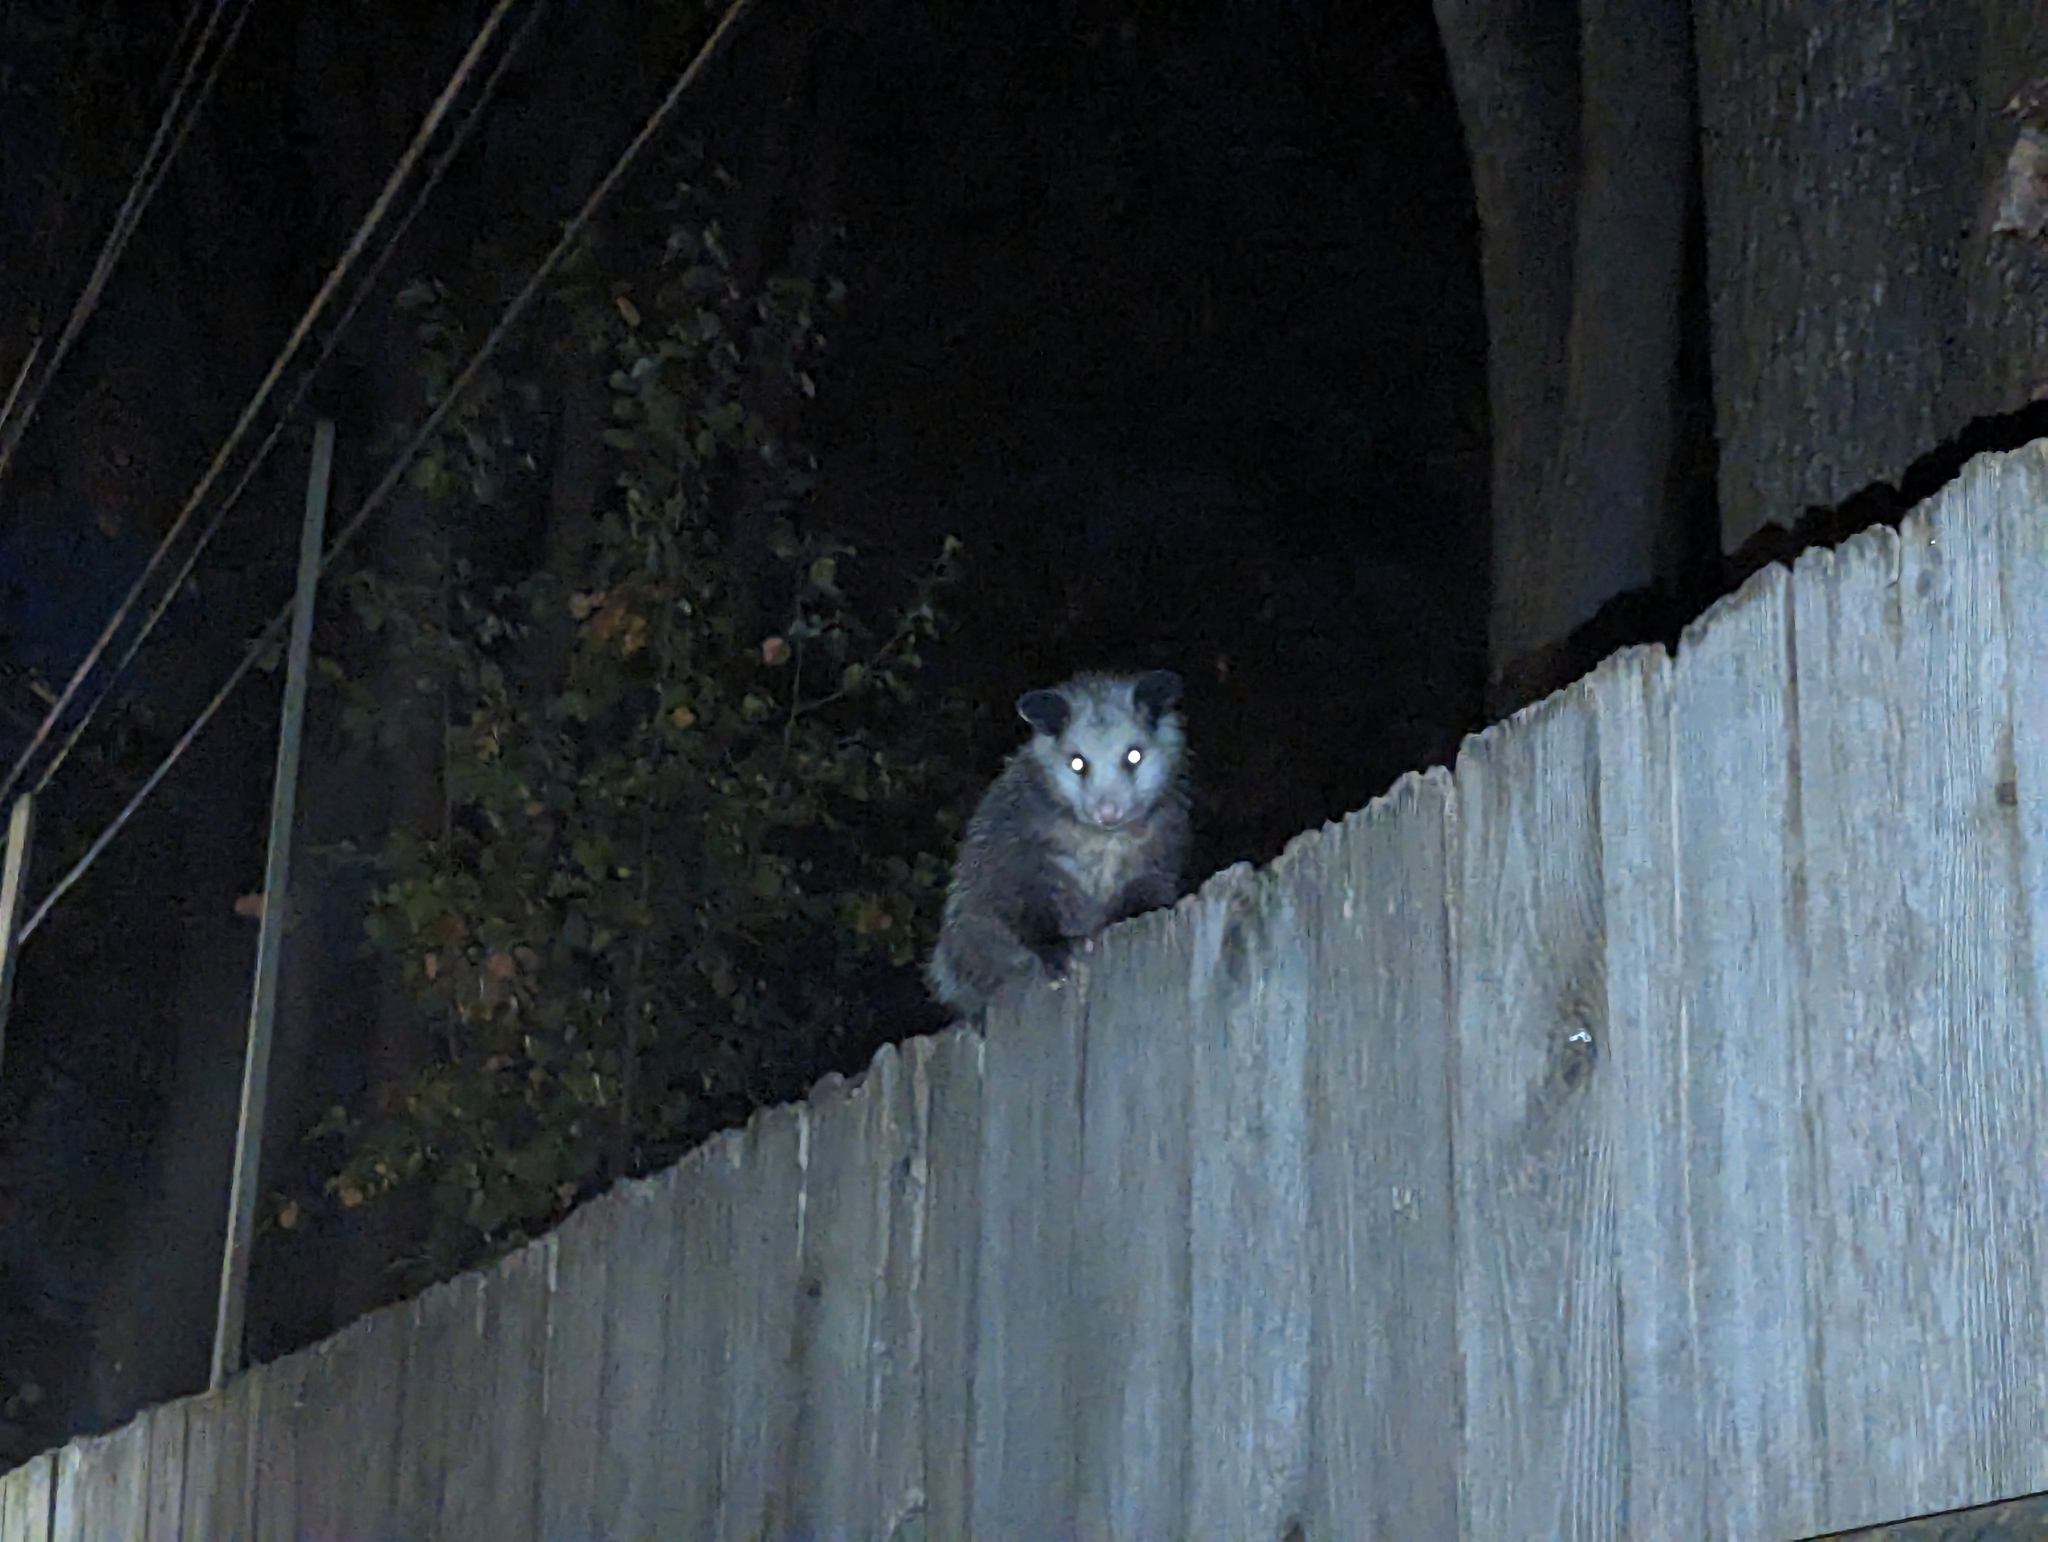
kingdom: Animalia
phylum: Chordata
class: Mammalia
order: Didelphimorphia
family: Didelphidae
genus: Didelphis
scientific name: Didelphis virginiana
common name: Virginia opossum
